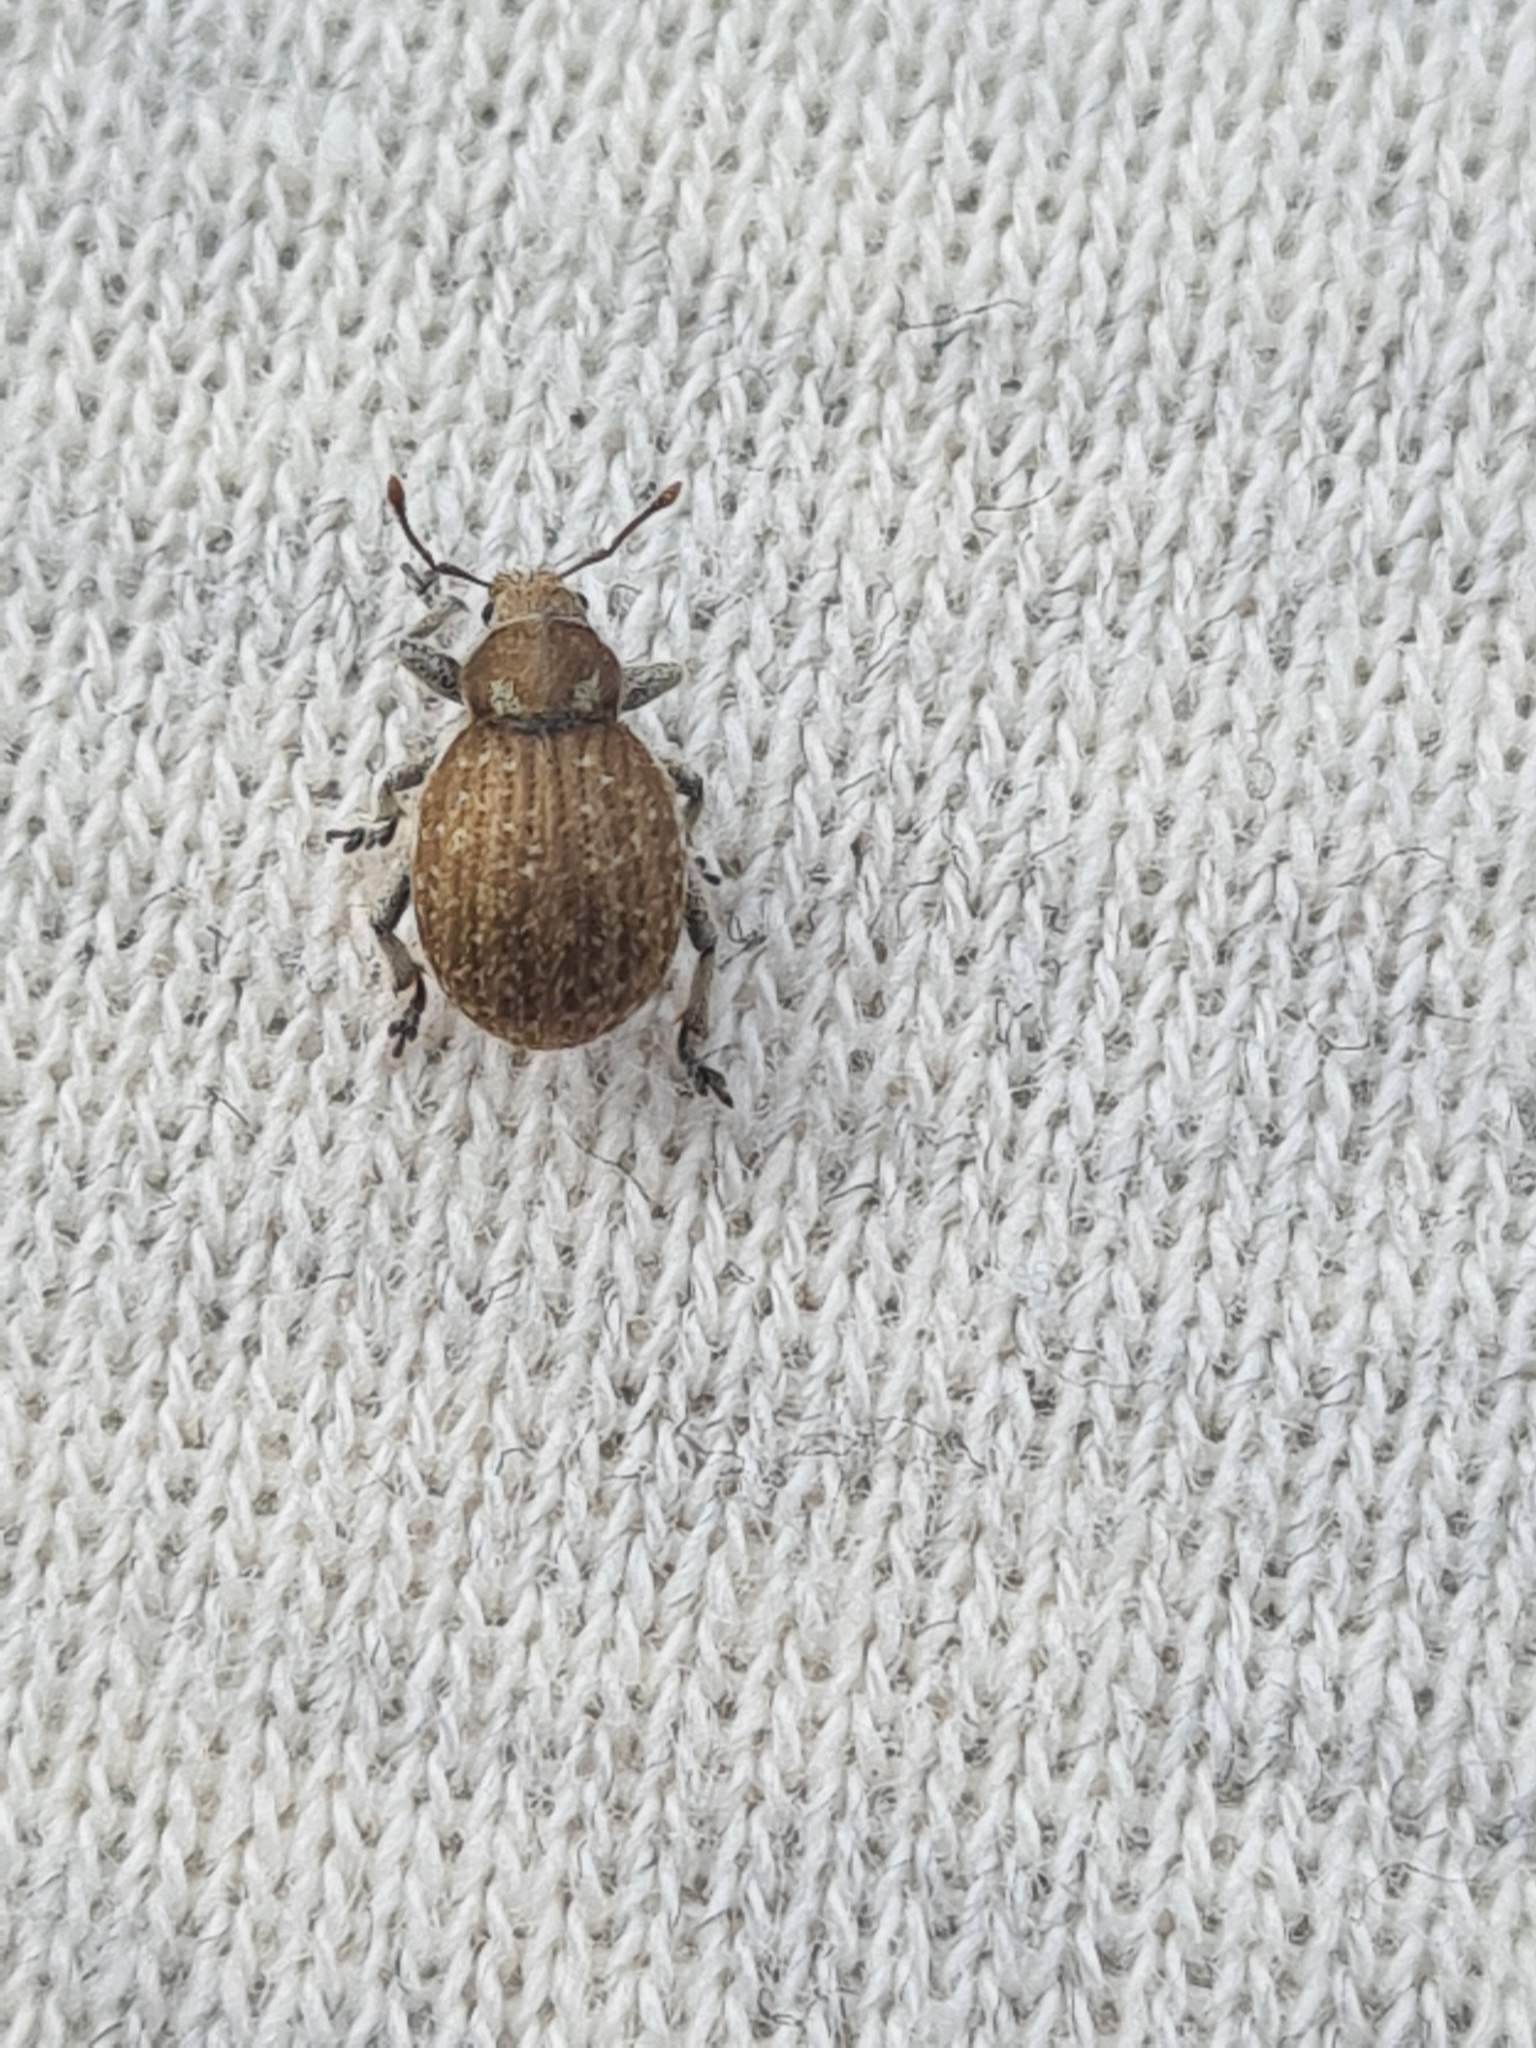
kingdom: Animalia
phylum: Arthropoda
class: Insecta
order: Coleoptera
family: Curculionidae
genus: Philopedon
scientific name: Philopedon plagiatum
